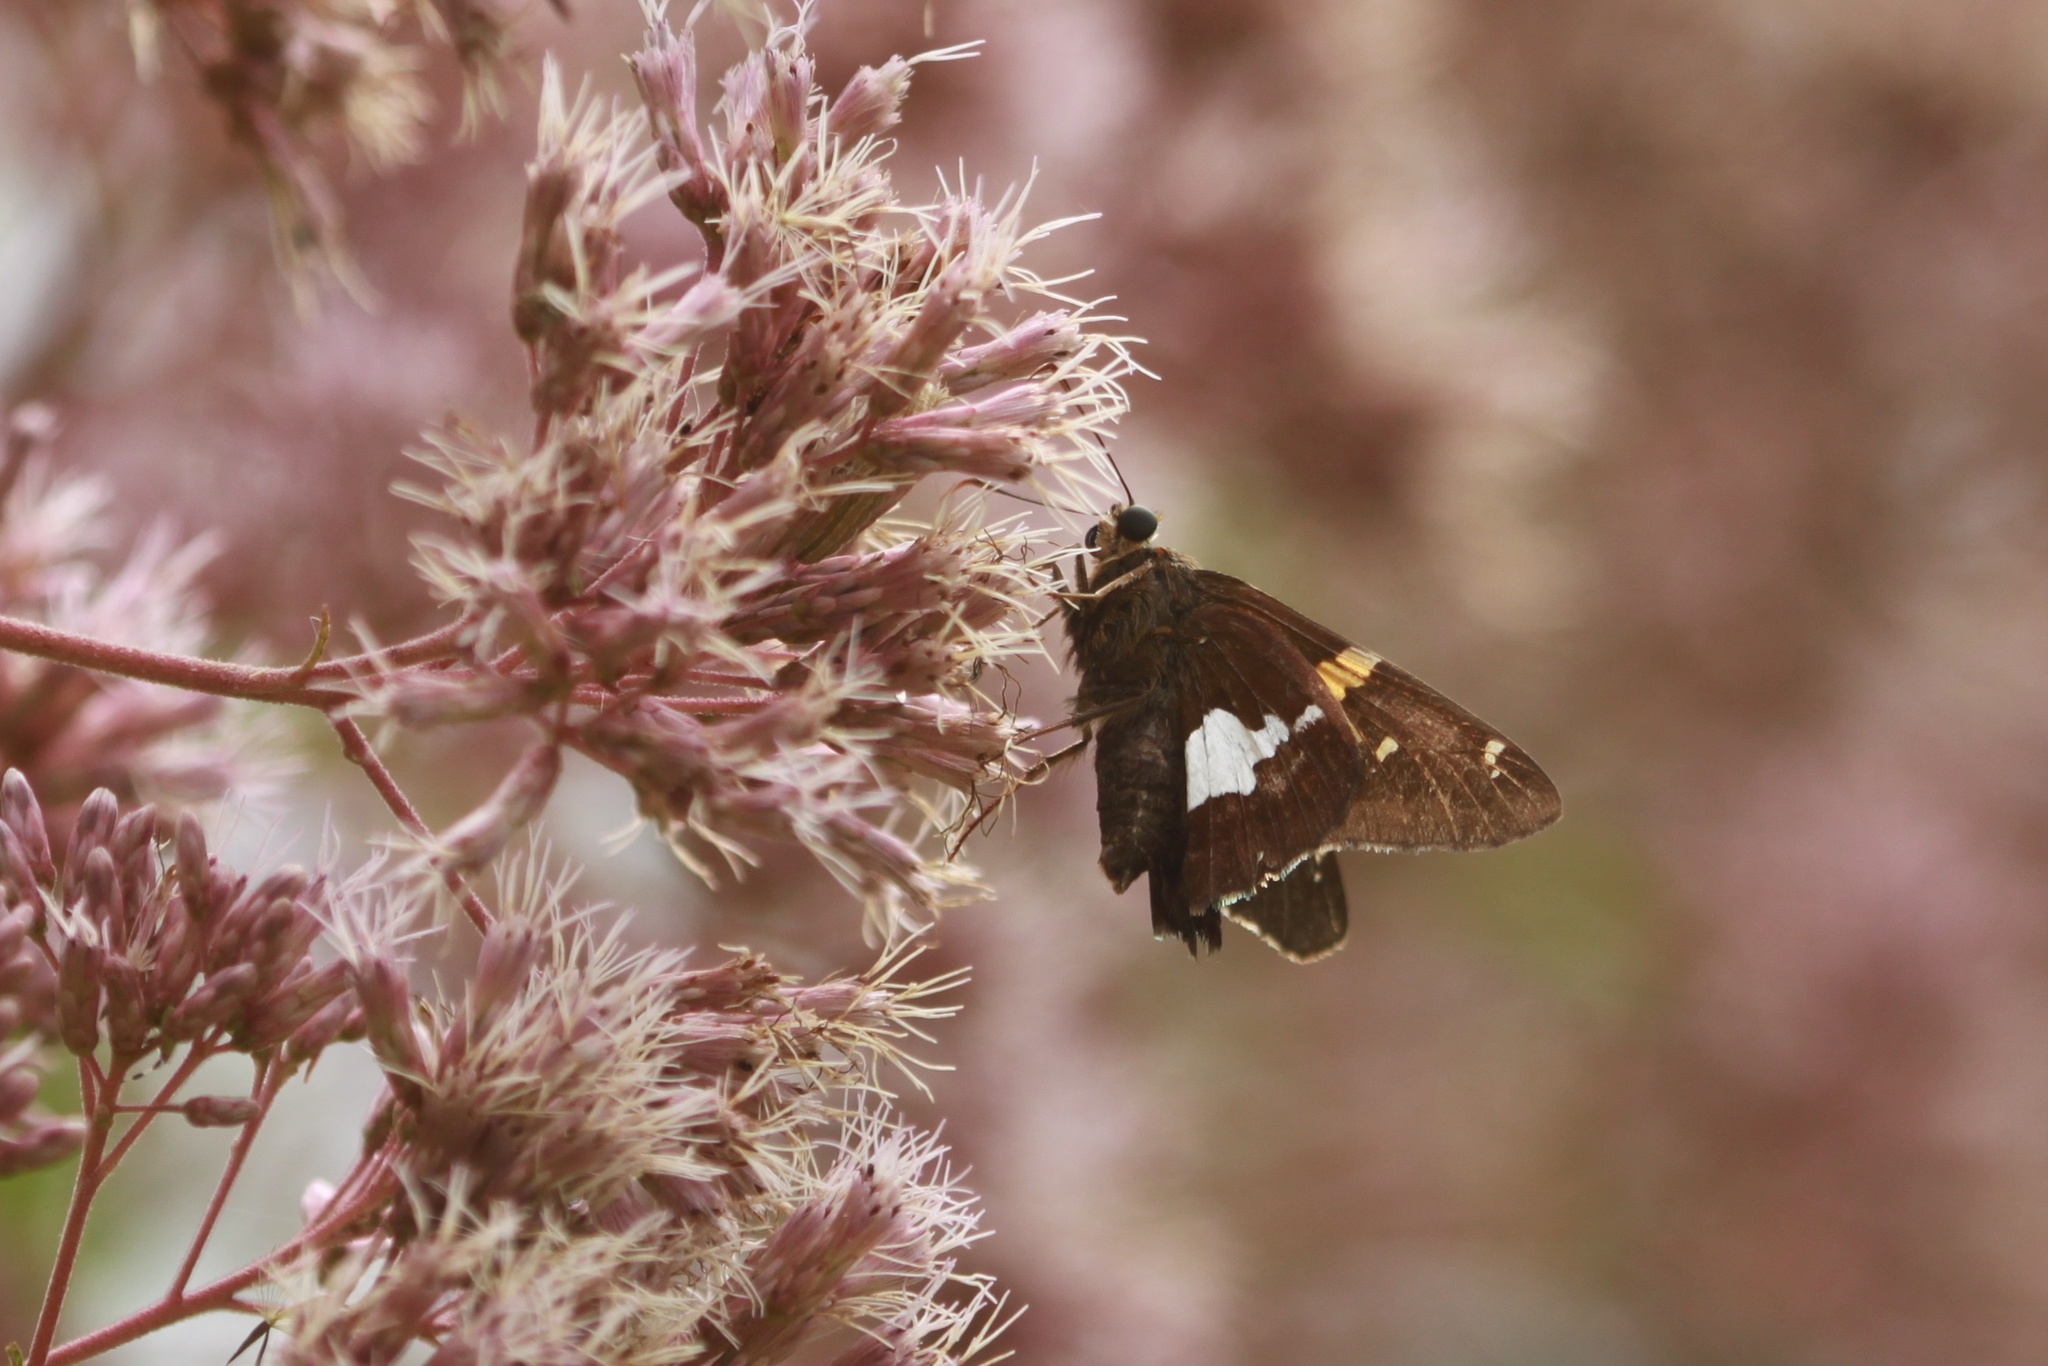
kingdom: Animalia
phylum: Arthropoda
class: Insecta
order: Lepidoptera
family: Hesperiidae
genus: Epargyreus
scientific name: Epargyreus clarus
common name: Silver-spotted skipper
